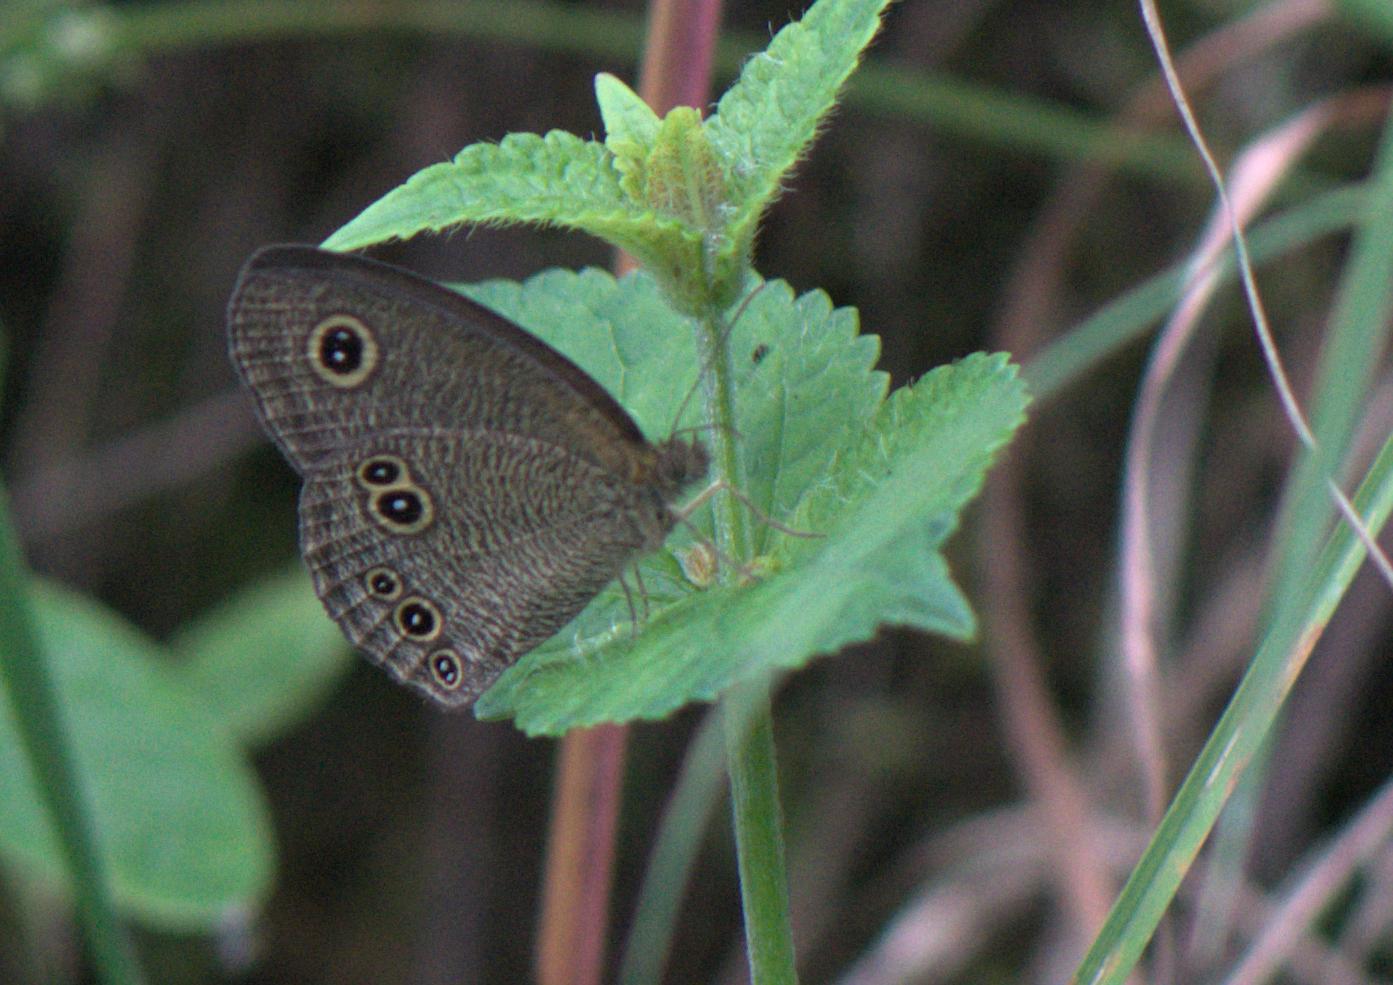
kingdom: Animalia
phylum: Arthropoda
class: Insecta
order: Lepidoptera
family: Nymphalidae
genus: Ypthima
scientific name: Ypthima nikaea
